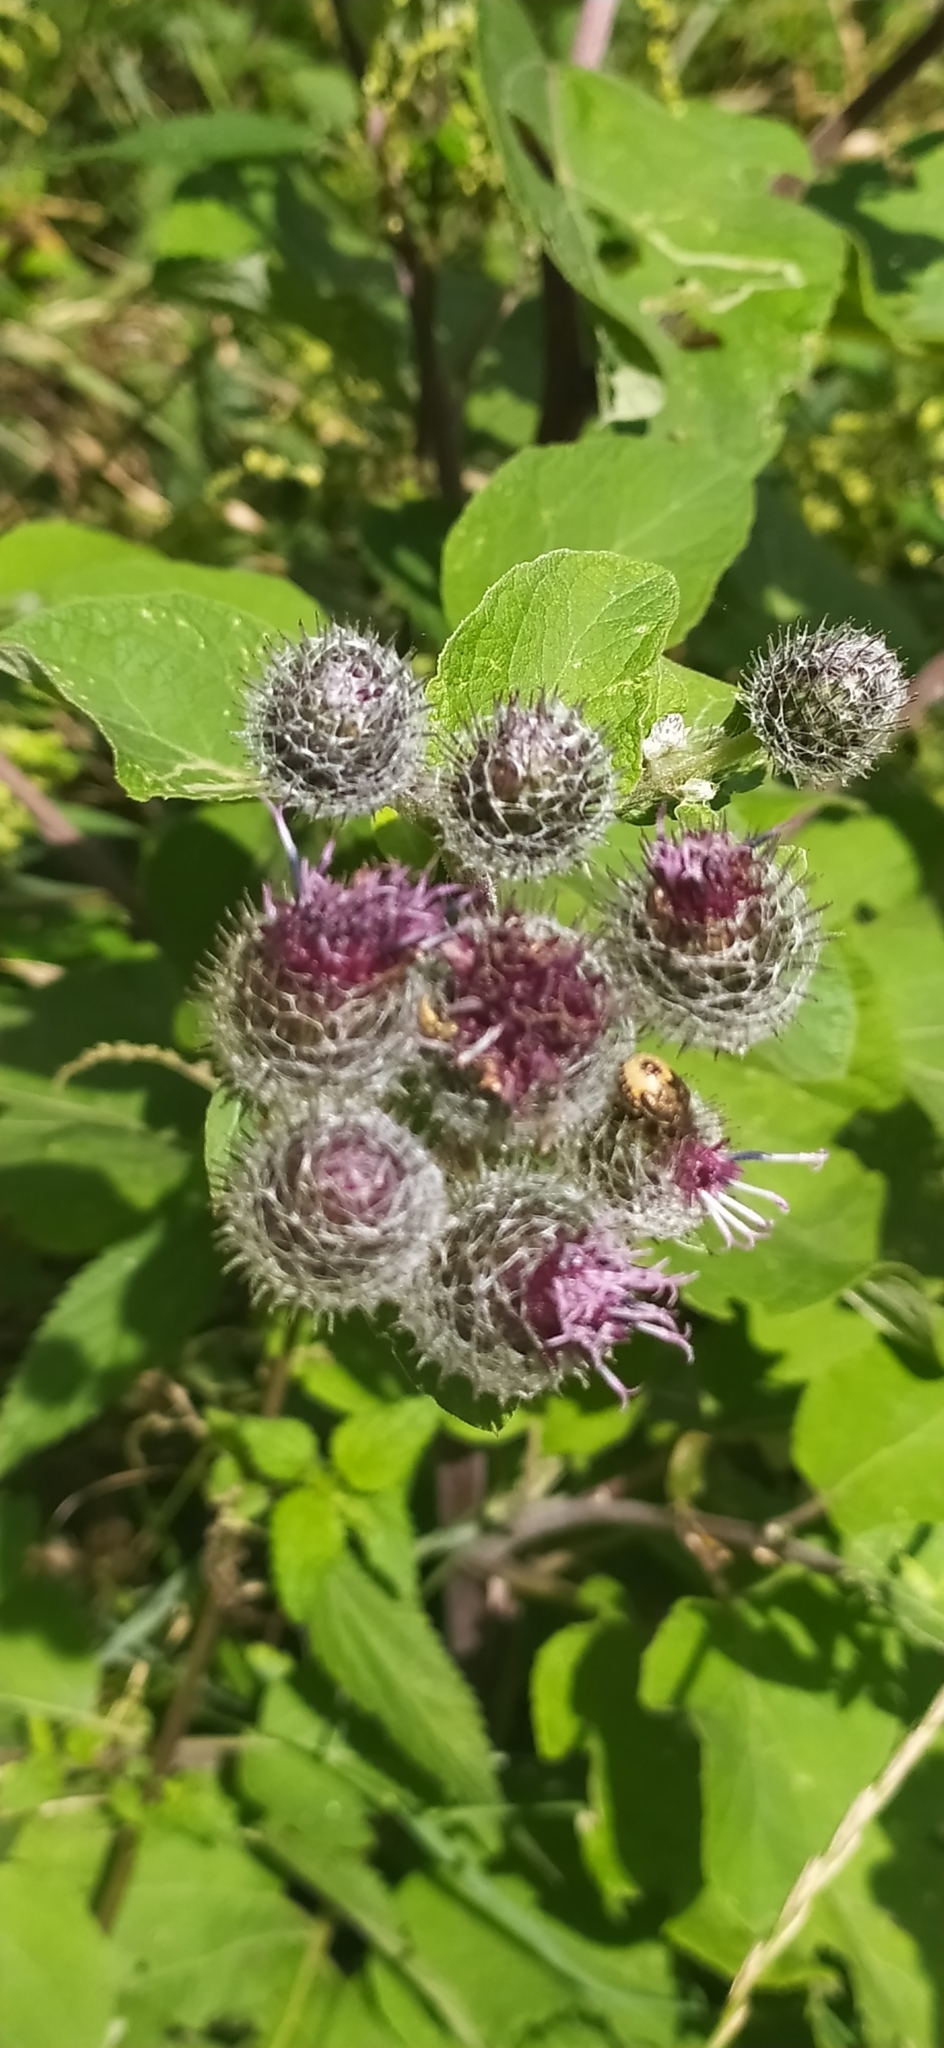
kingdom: Plantae
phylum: Tracheophyta
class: Magnoliopsida
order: Asterales
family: Asteraceae
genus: Arctium
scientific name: Arctium tomentosum
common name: Woolly burdock
